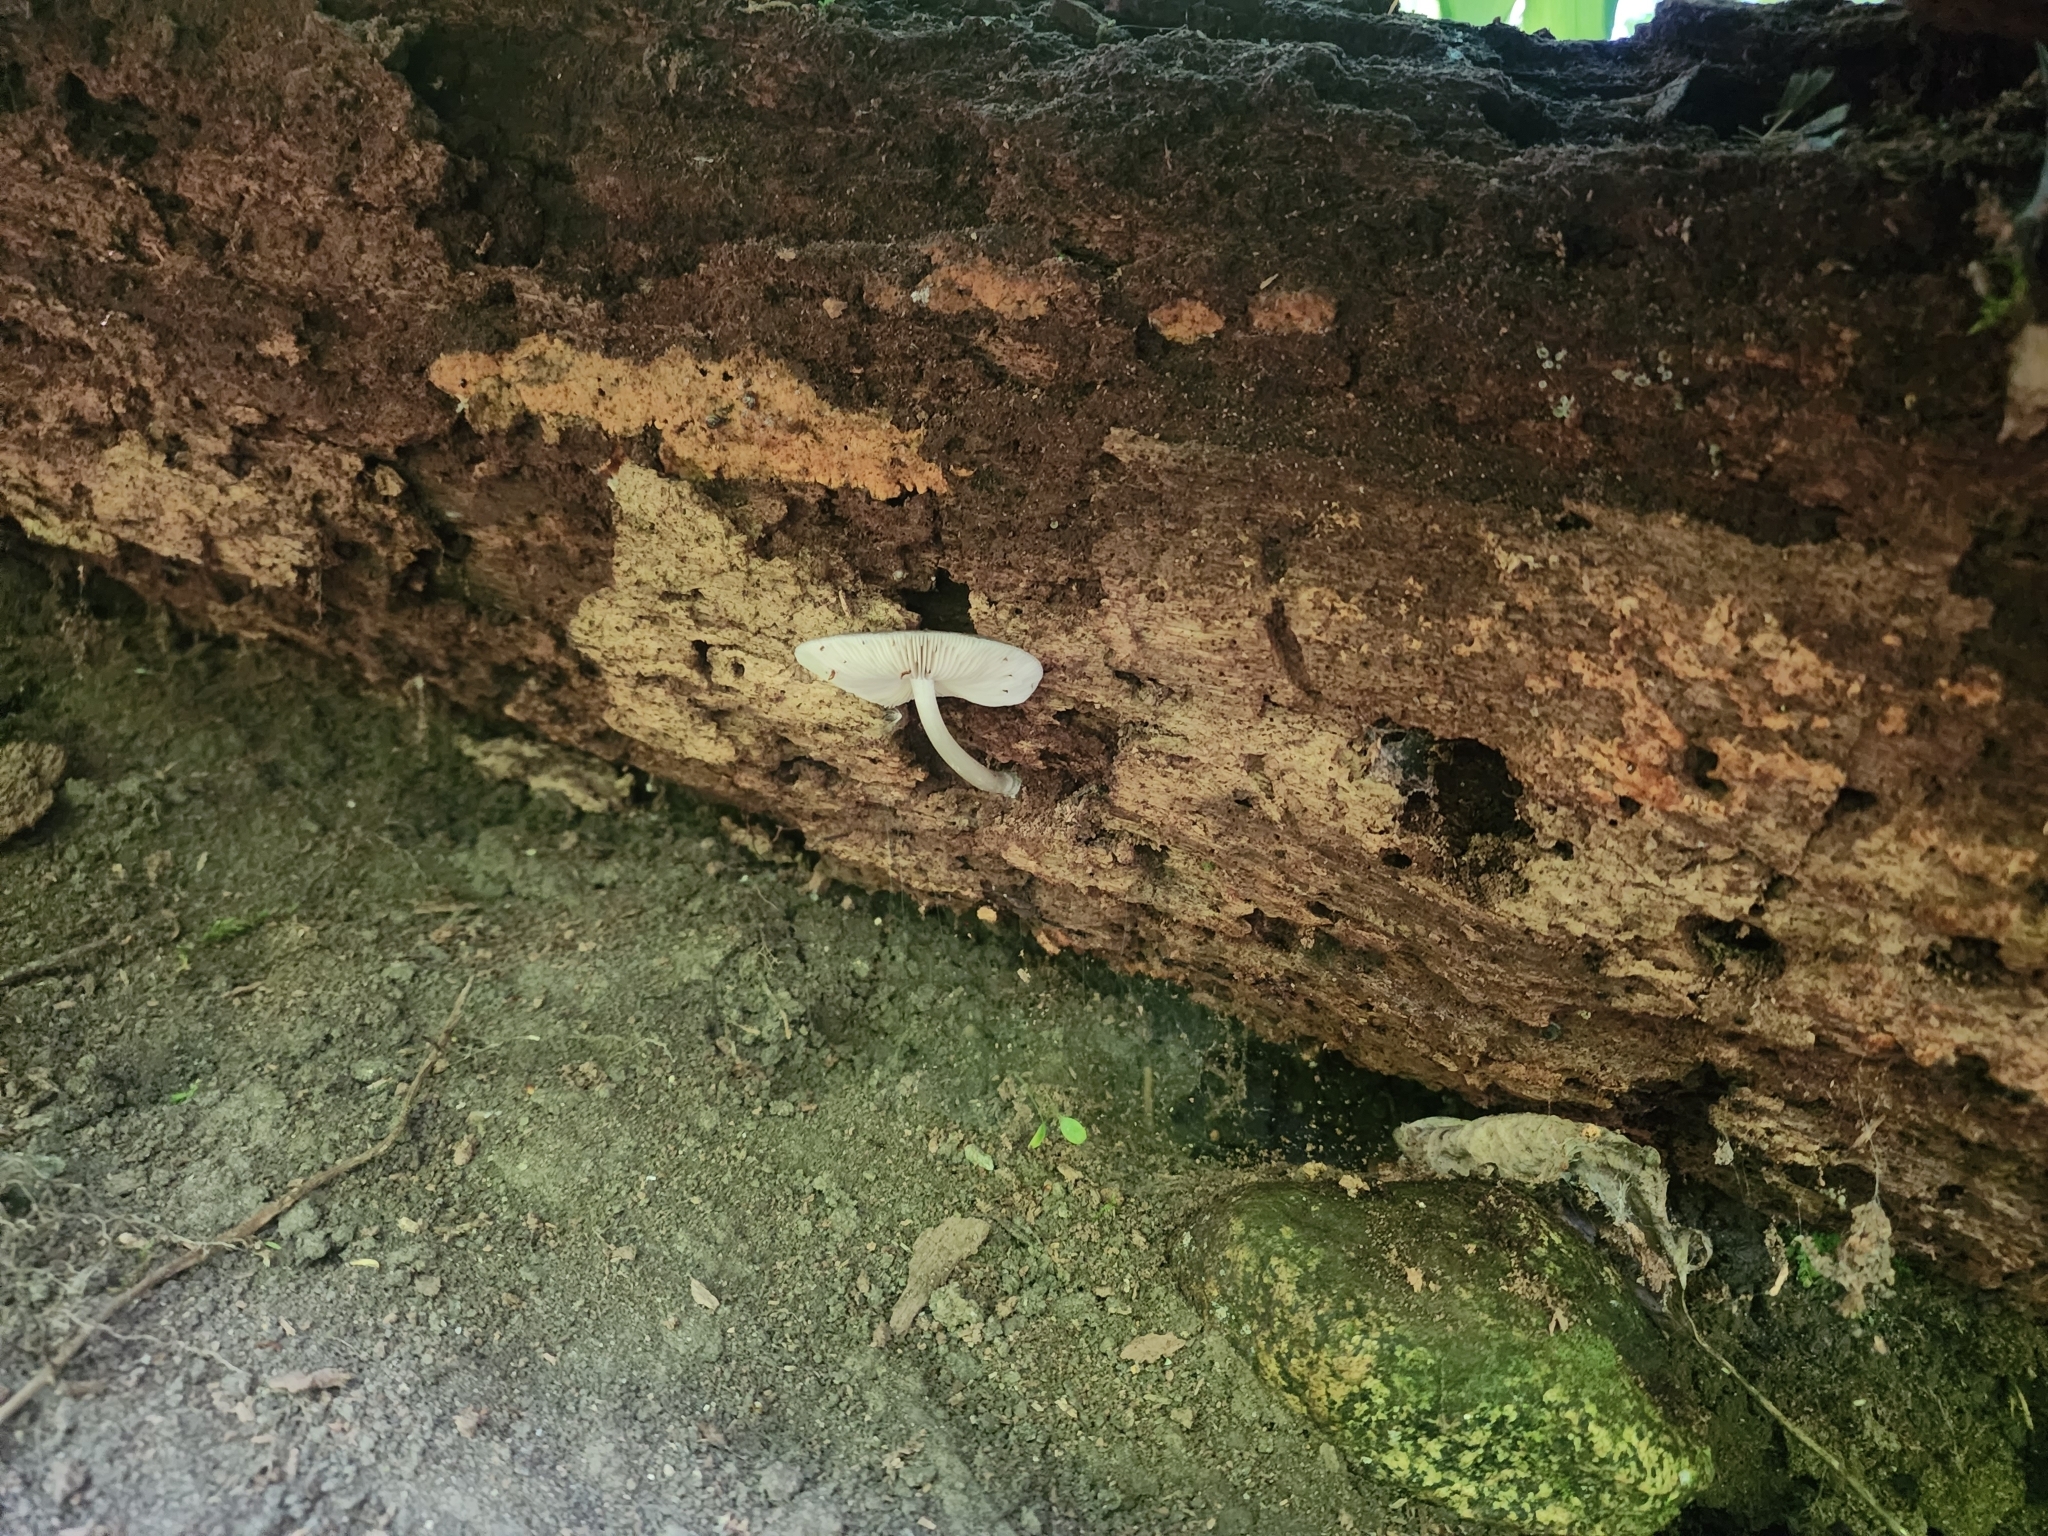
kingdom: Fungi
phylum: Basidiomycota
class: Agaricomycetes
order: Agaricales
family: Pluteaceae
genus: Pluteus
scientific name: Pluteus americanus
